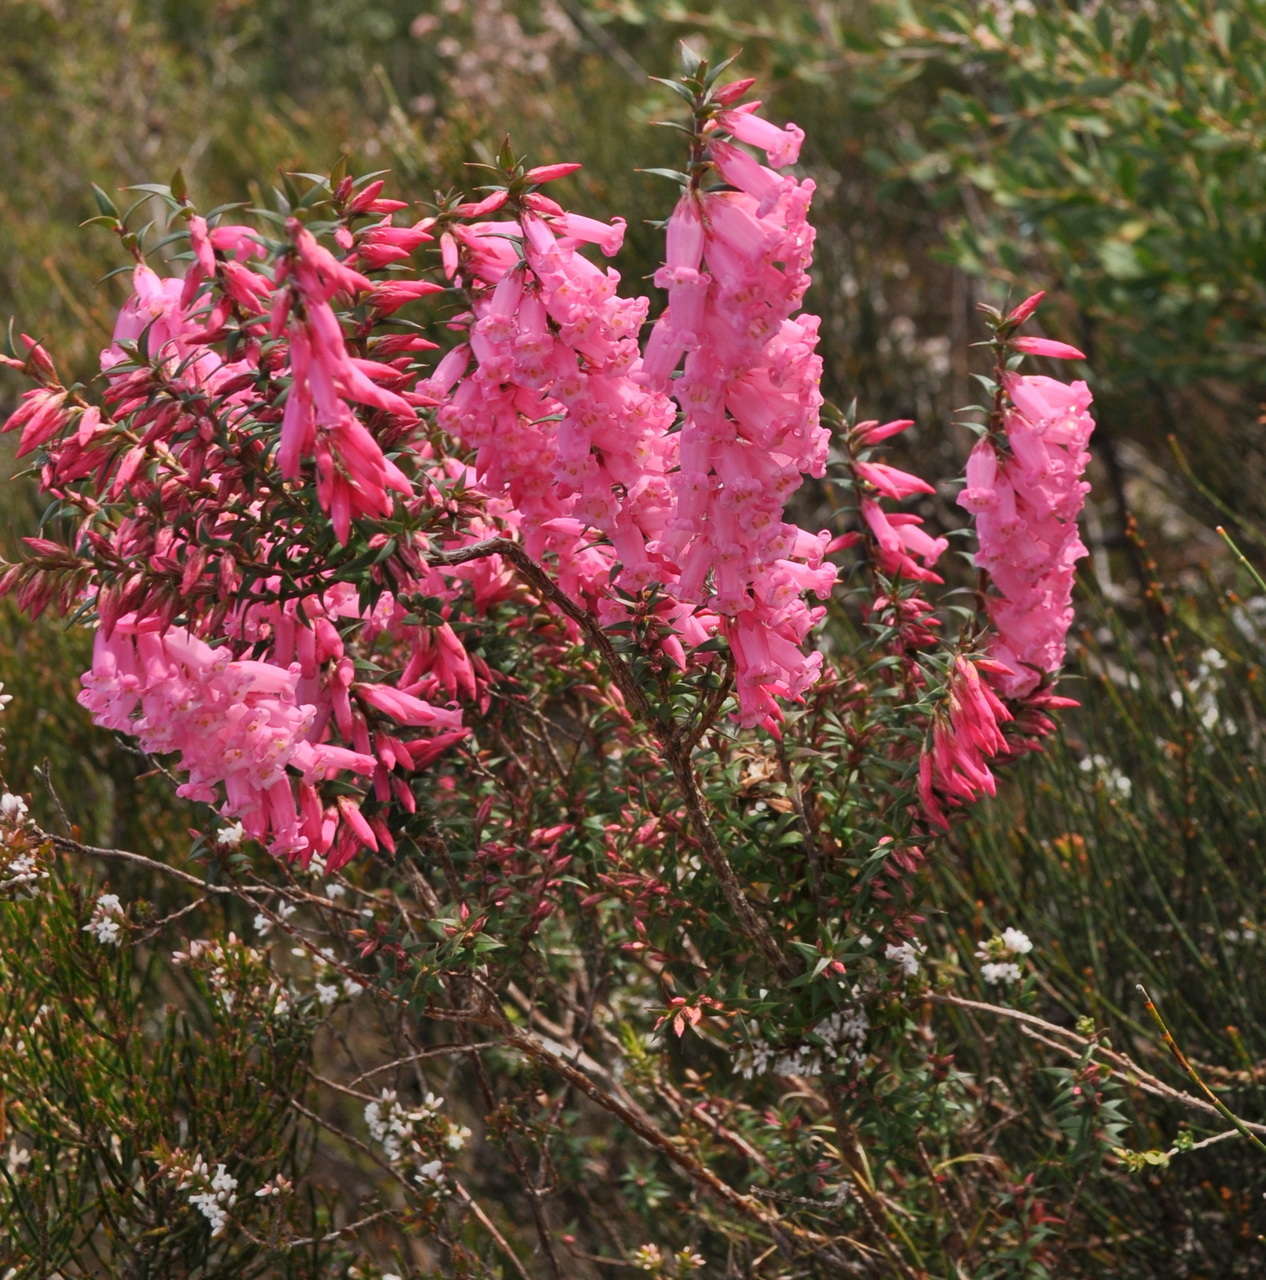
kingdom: Plantae
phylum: Tracheophyta
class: Magnoliopsida
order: Ericales
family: Ericaceae
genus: Epacris
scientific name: Epacris impressa
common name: Common-heath
